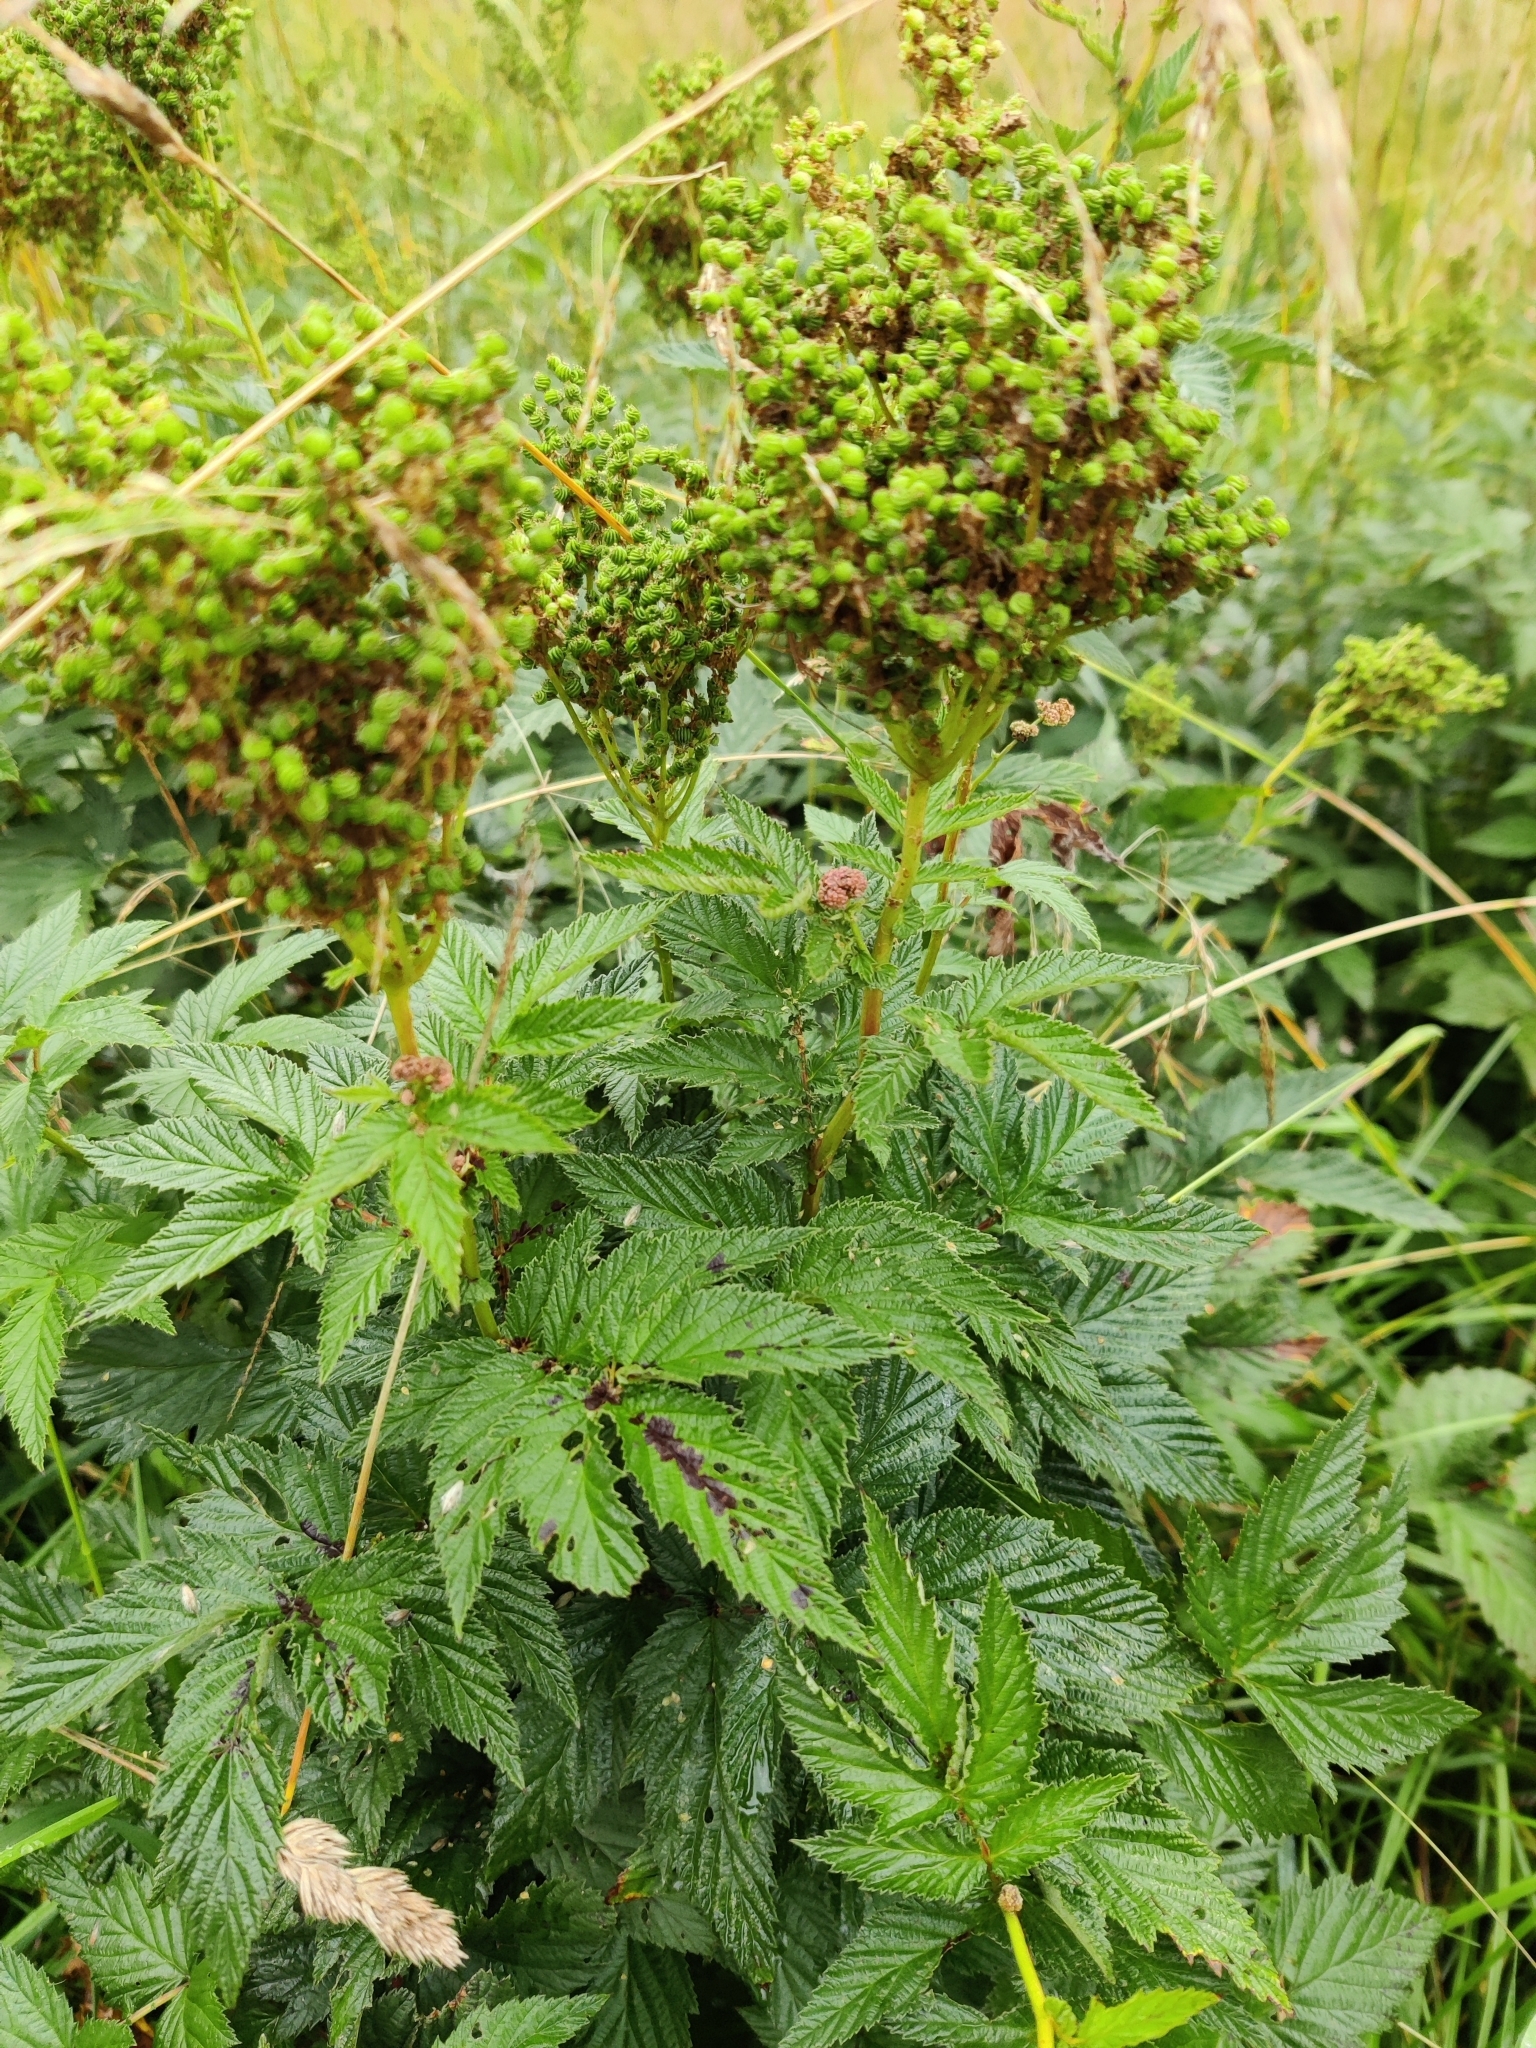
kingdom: Plantae
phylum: Tracheophyta
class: Magnoliopsida
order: Rosales
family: Rosaceae
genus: Filipendula
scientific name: Filipendula ulmaria
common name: Meadowsweet
